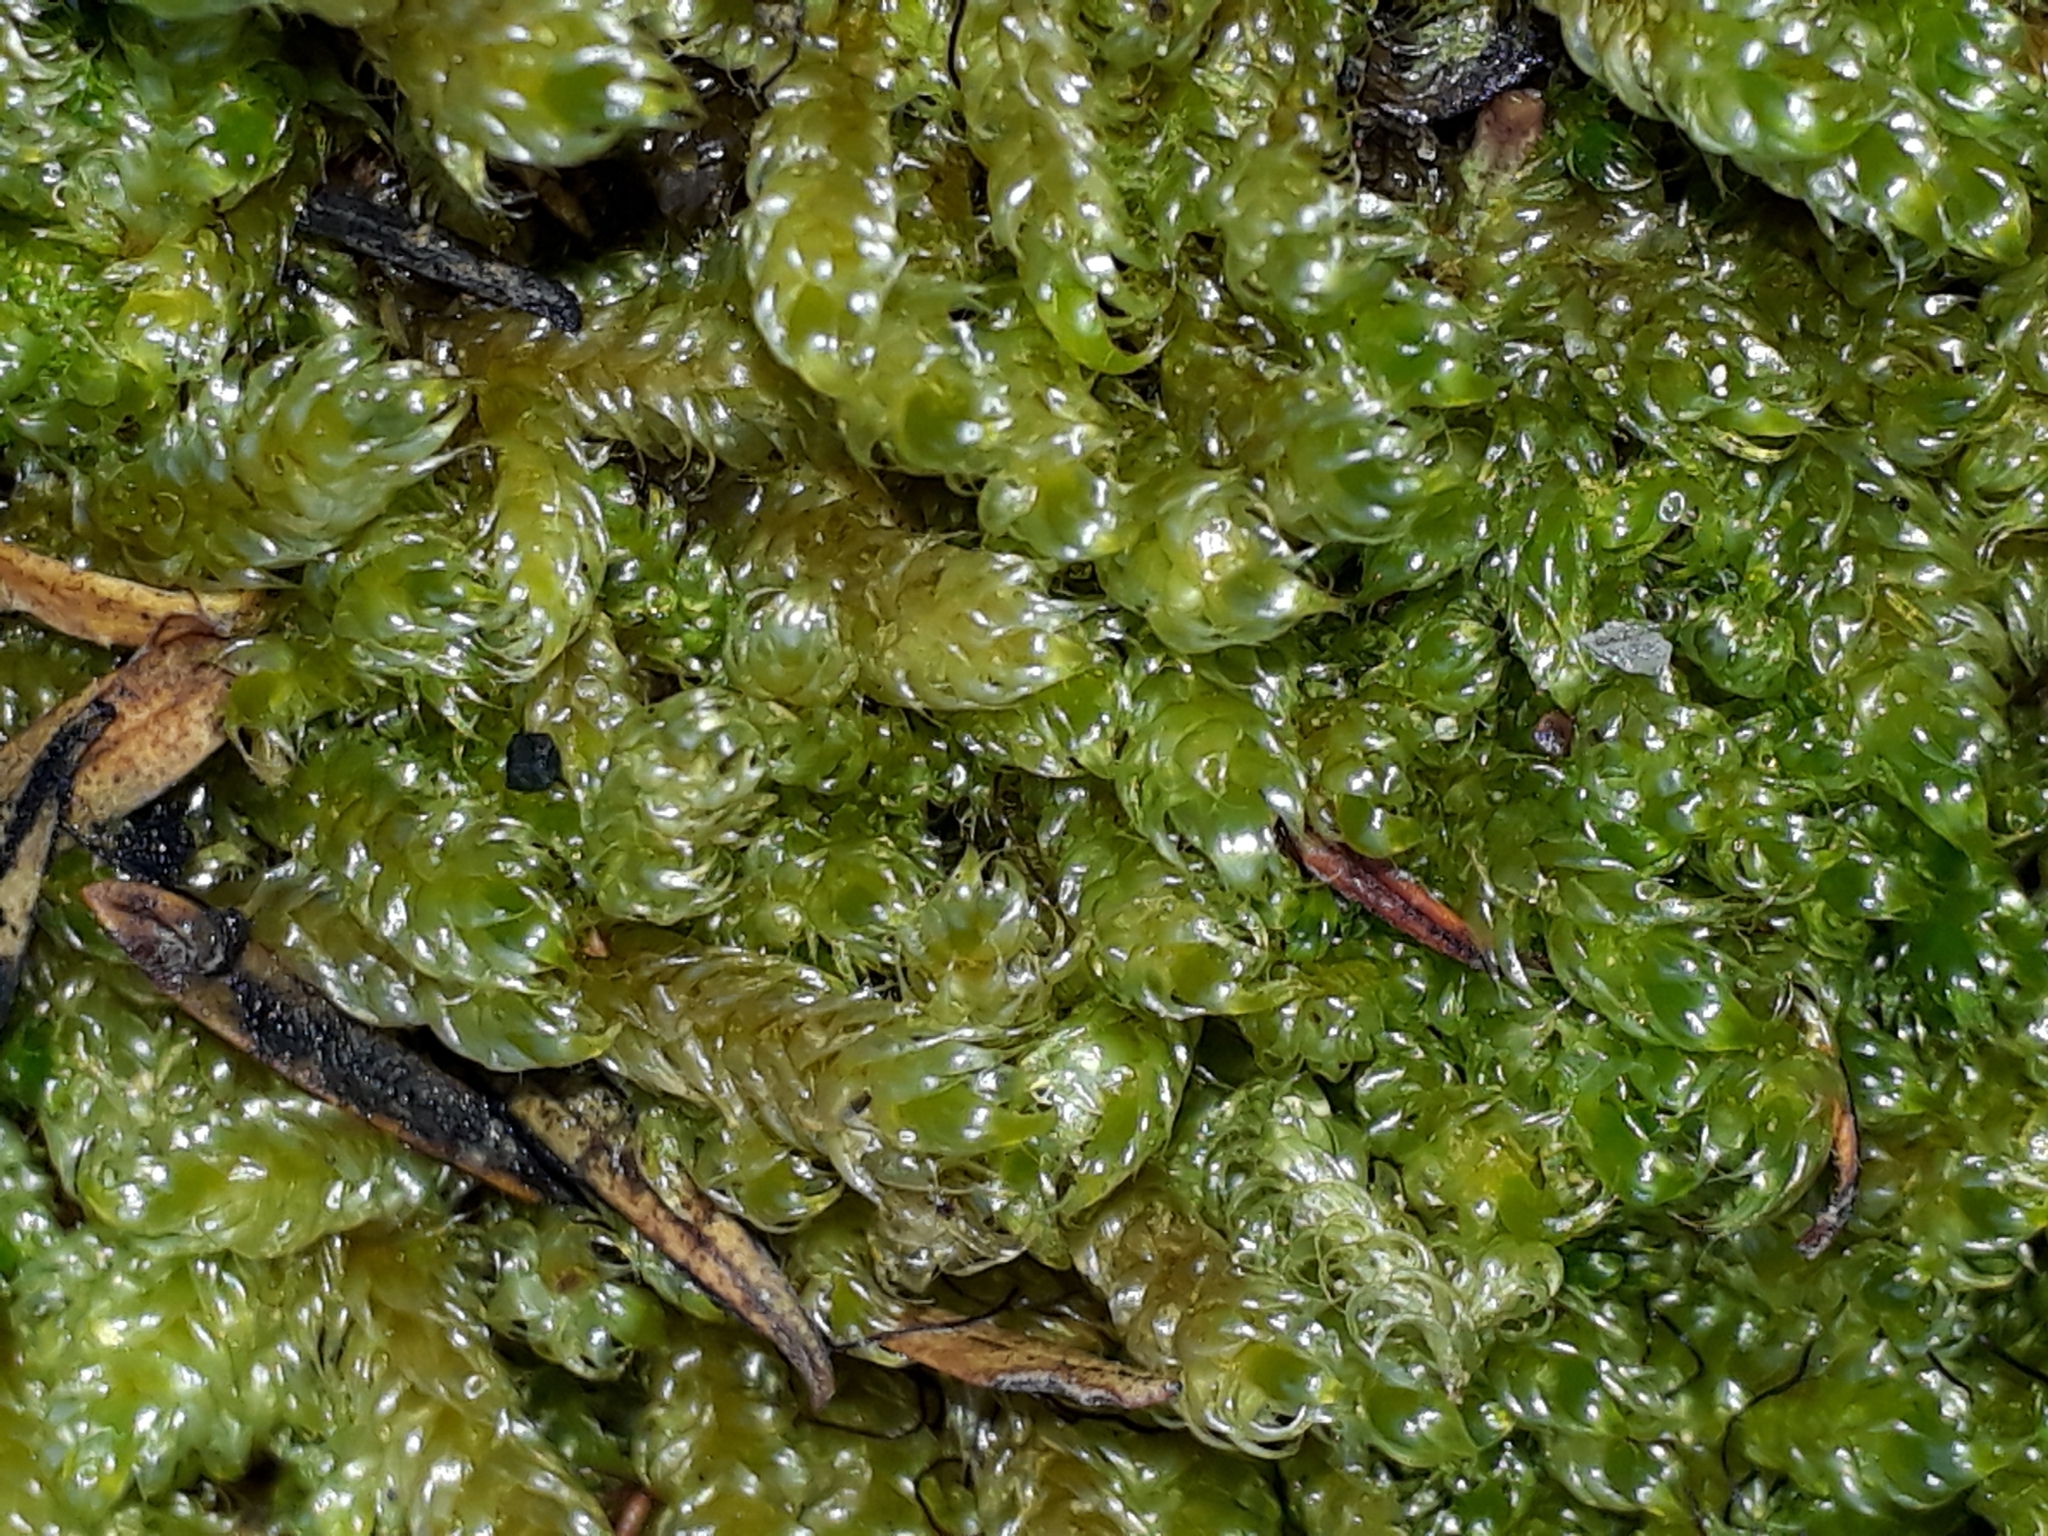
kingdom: Plantae
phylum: Bryophyta
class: Bryopsida
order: Hypnales
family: Hypnaceae
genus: Hypnum
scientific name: Hypnum cupressiforme
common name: Cypress-leaved plait-moss
